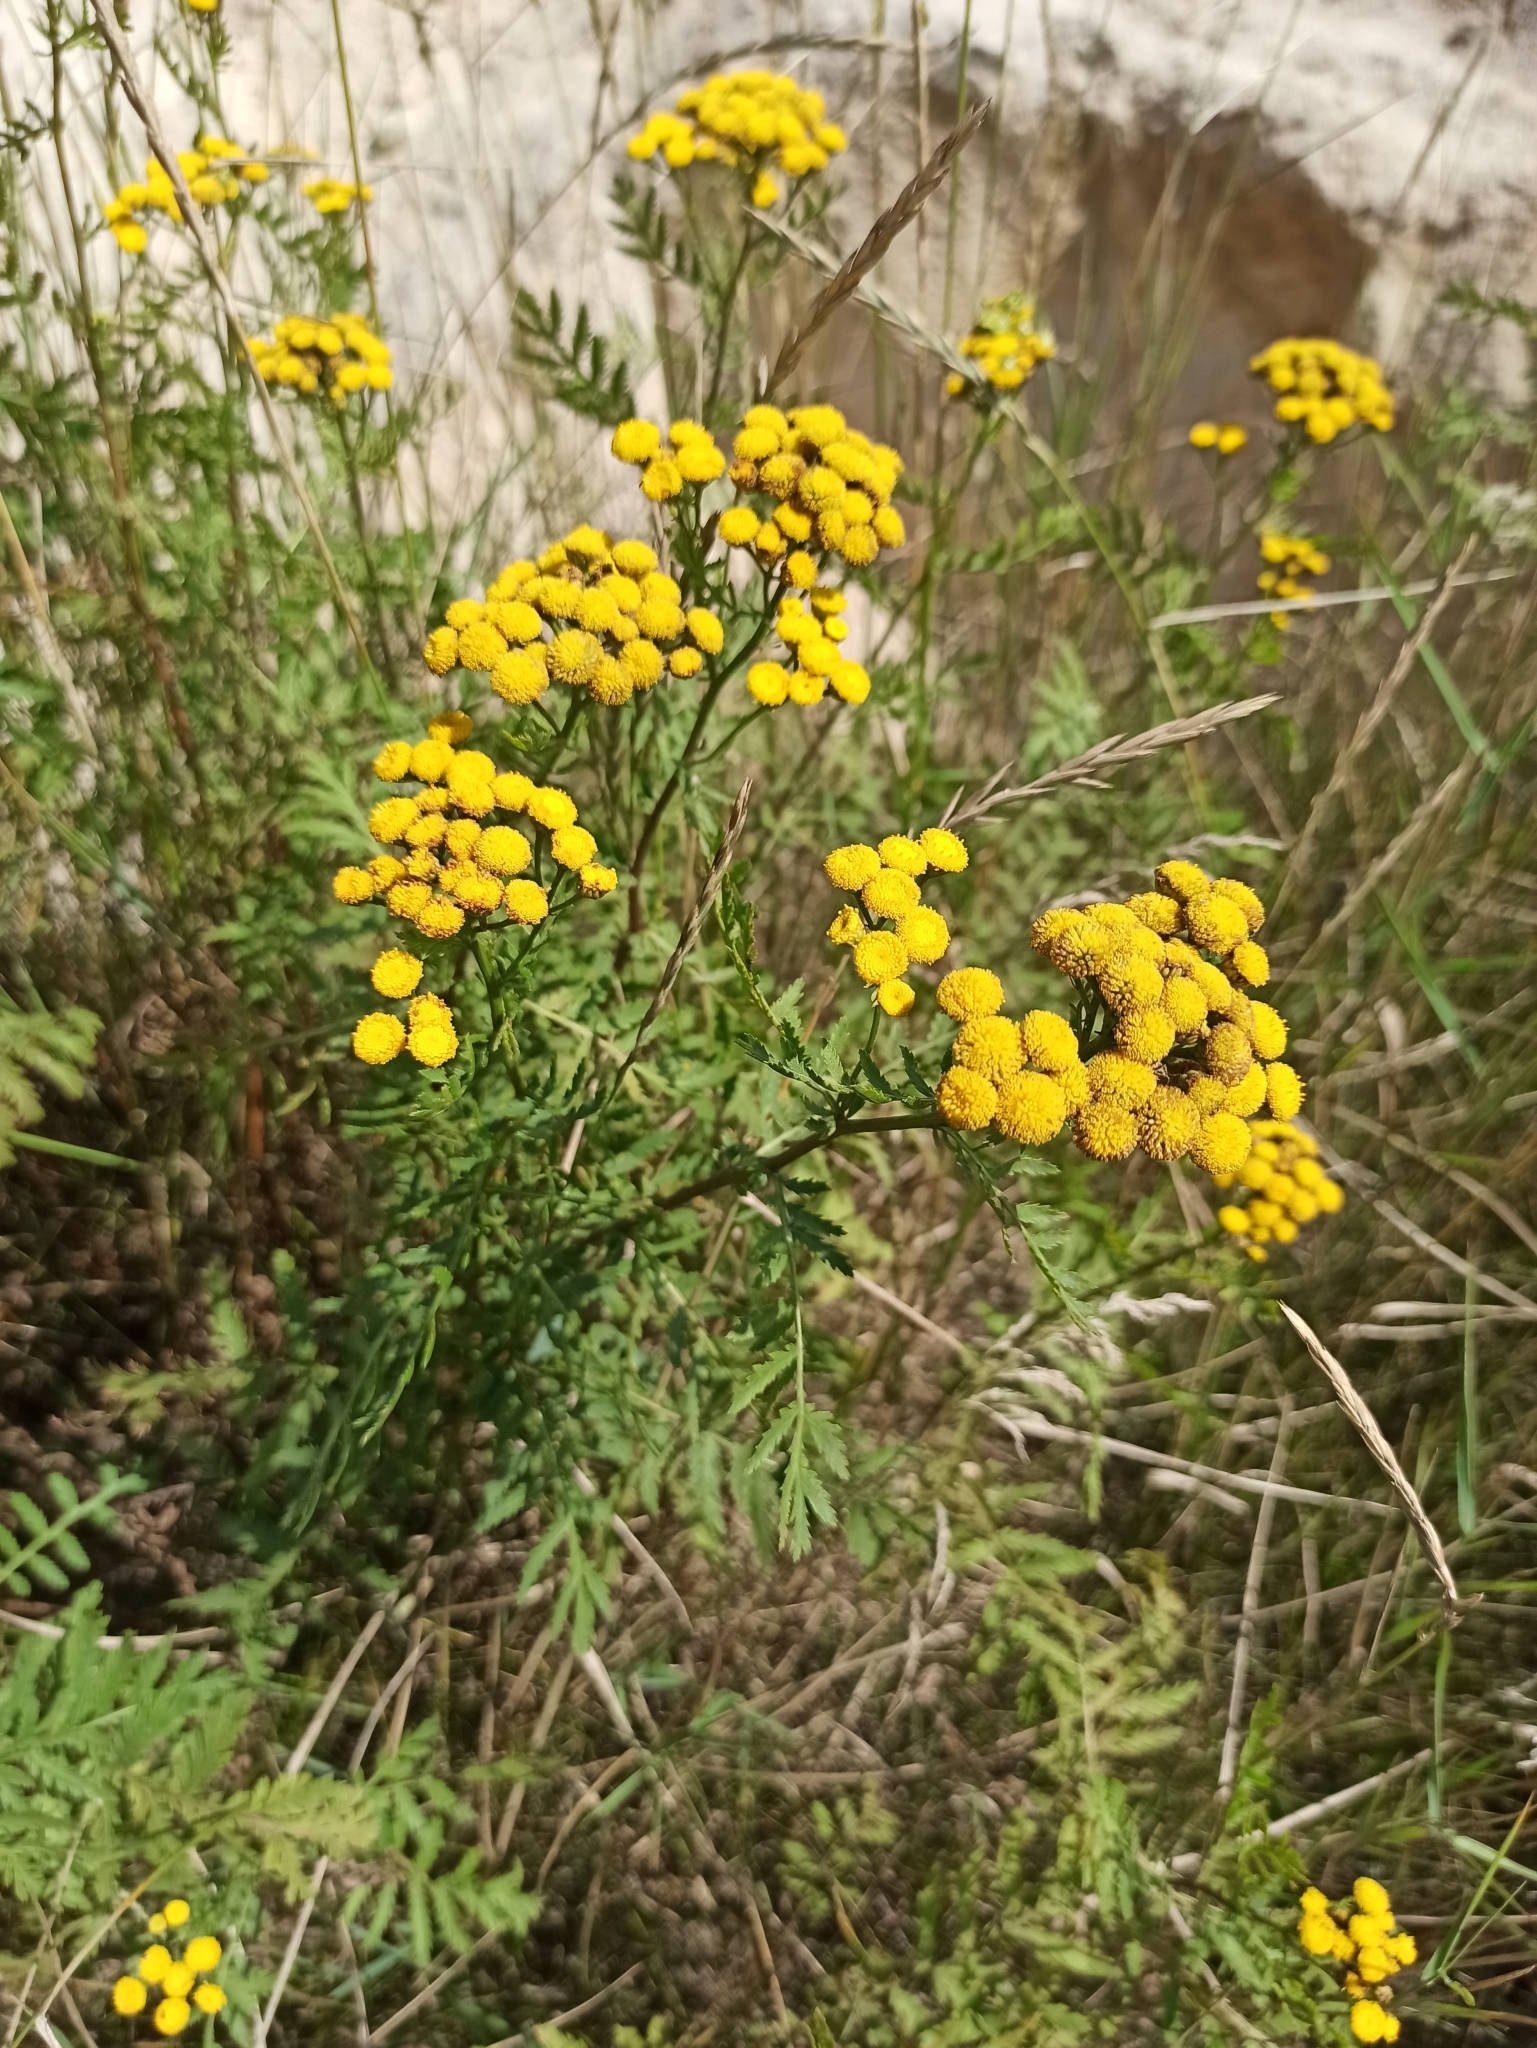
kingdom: Plantae
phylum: Tracheophyta
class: Magnoliopsida
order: Asterales
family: Asteraceae
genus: Tanacetum
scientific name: Tanacetum vulgare
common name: Common tansy
